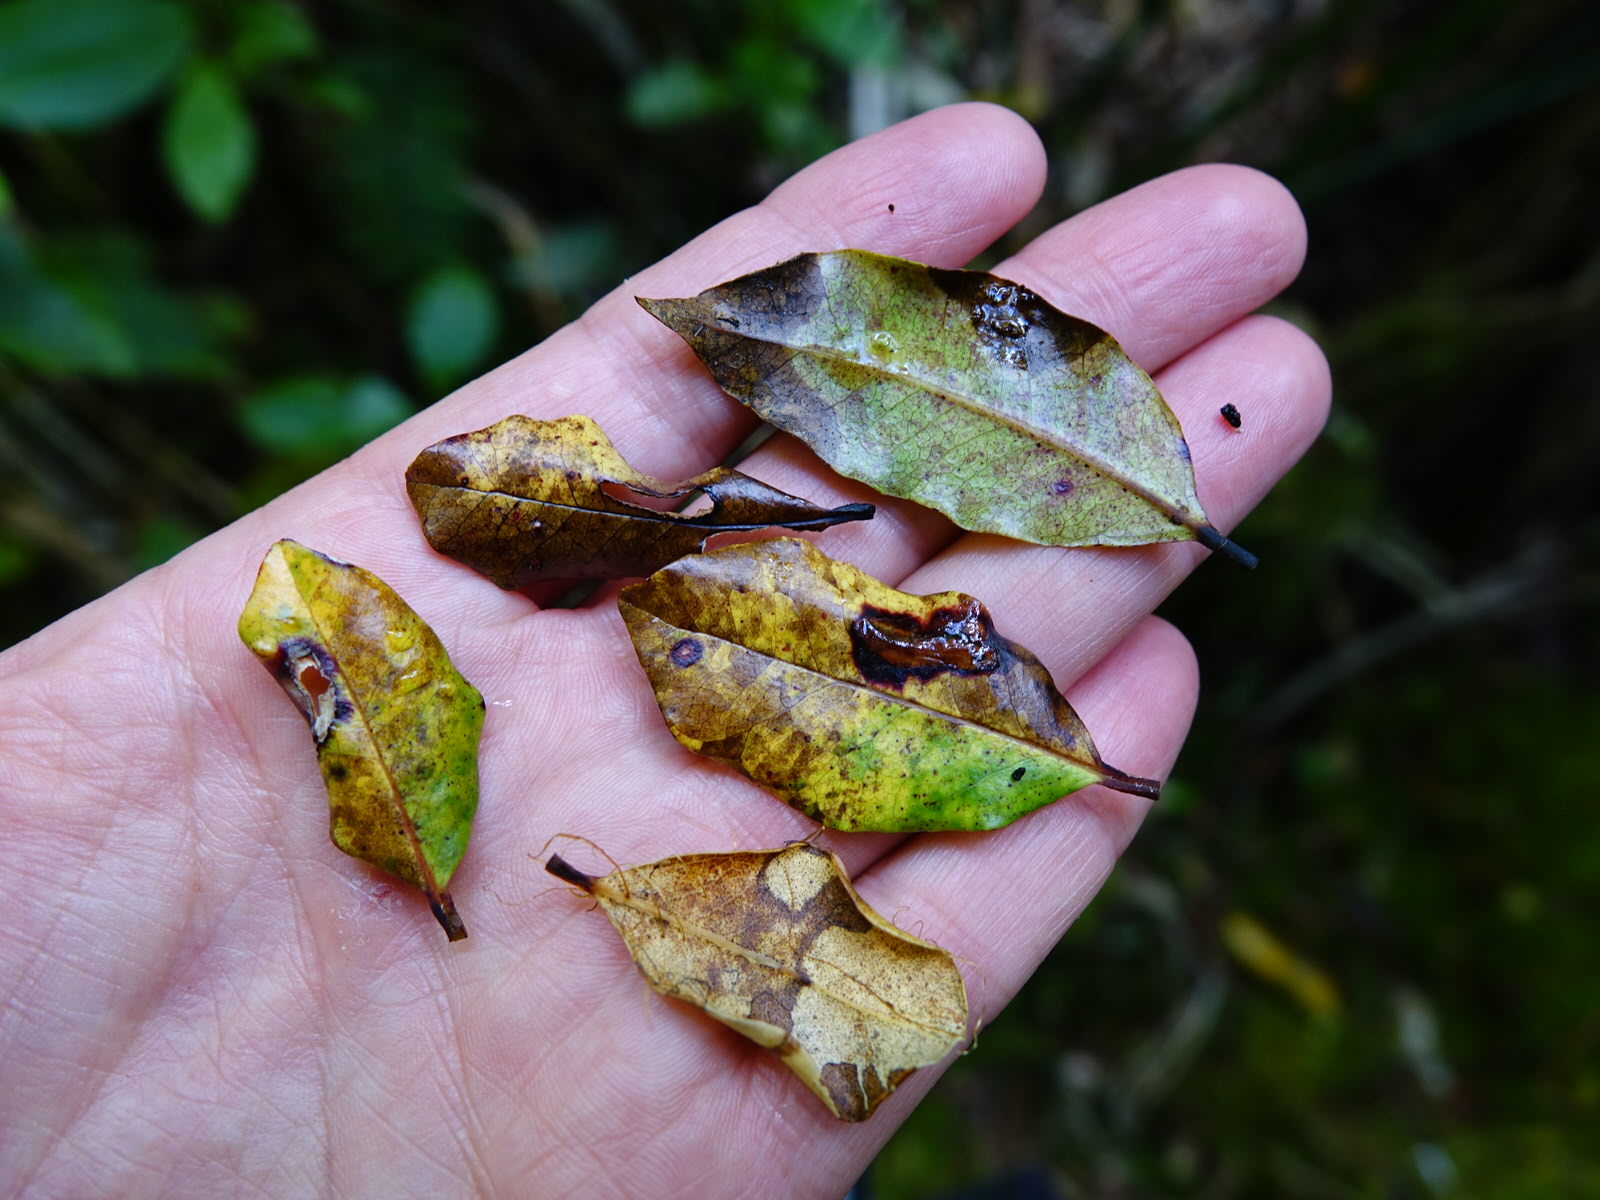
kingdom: Plantae
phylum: Tracheophyta
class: Magnoliopsida
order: Myrtales
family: Myrtaceae
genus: Syzygium
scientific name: Syzygium maire
